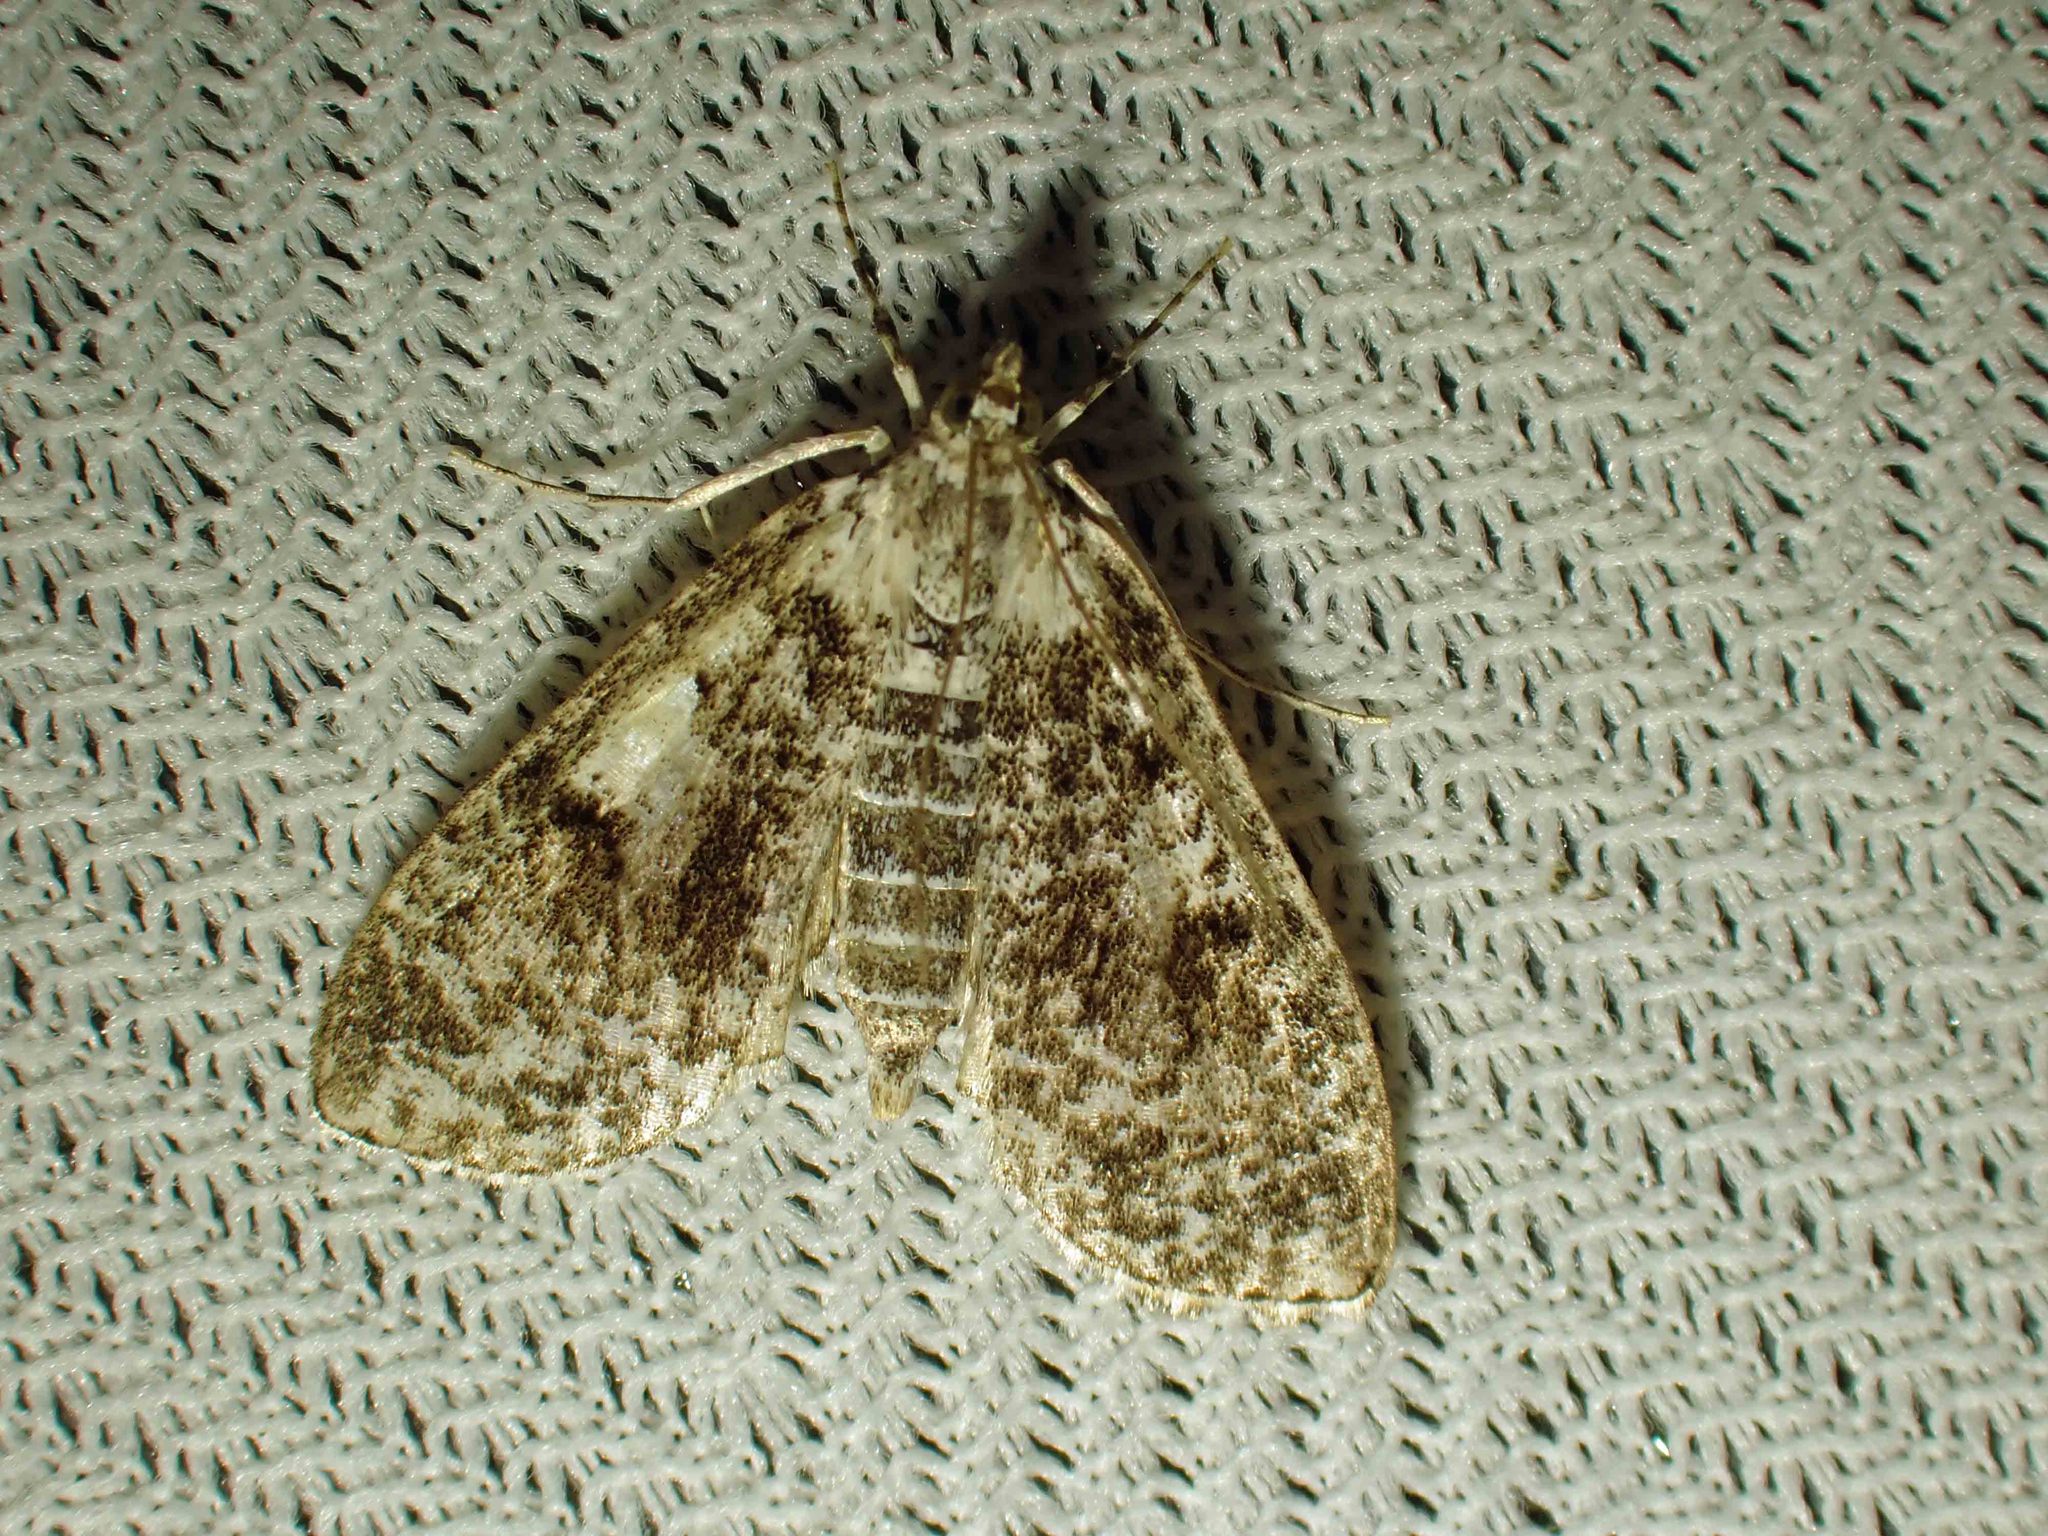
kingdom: Animalia
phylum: Arthropoda
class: Insecta
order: Lepidoptera
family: Crambidae
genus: Palpita
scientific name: Palpita magniferalis
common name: Splendid palpita moth
